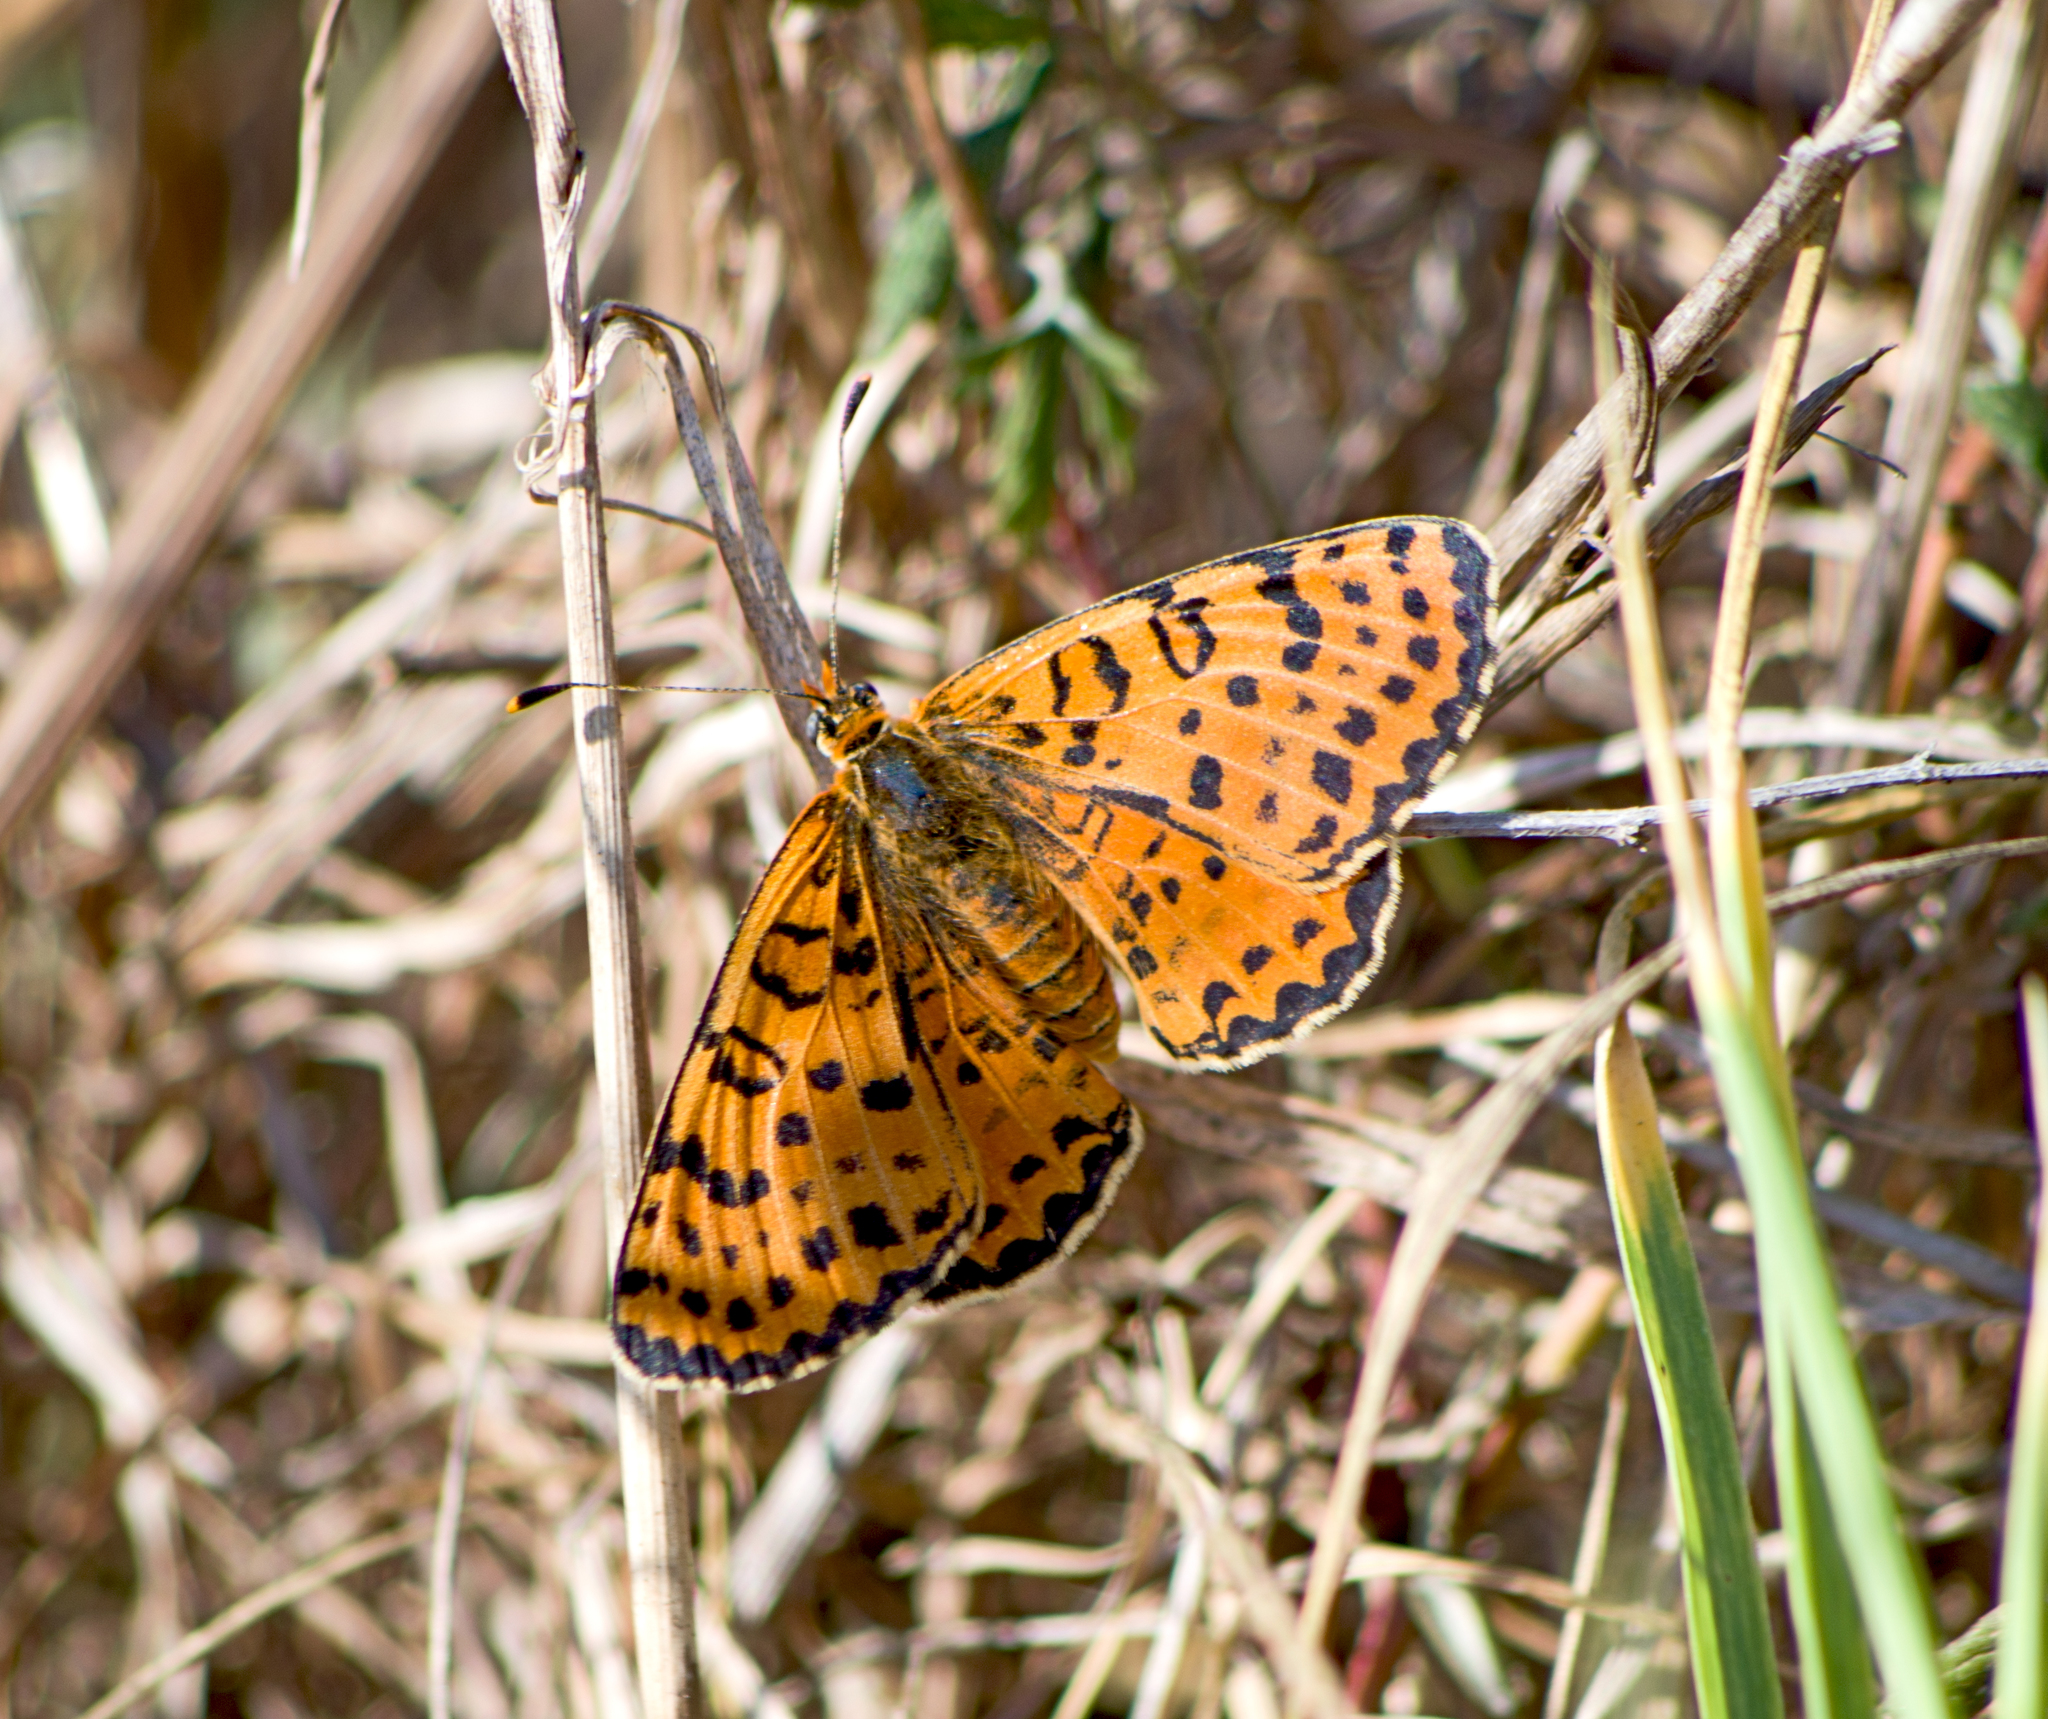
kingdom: Animalia
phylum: Arthropoda
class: Insecta
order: Lepidoptera
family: Nymphalidae
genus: Melitaea
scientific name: Melitaea didyma
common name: Spotted fritillary
